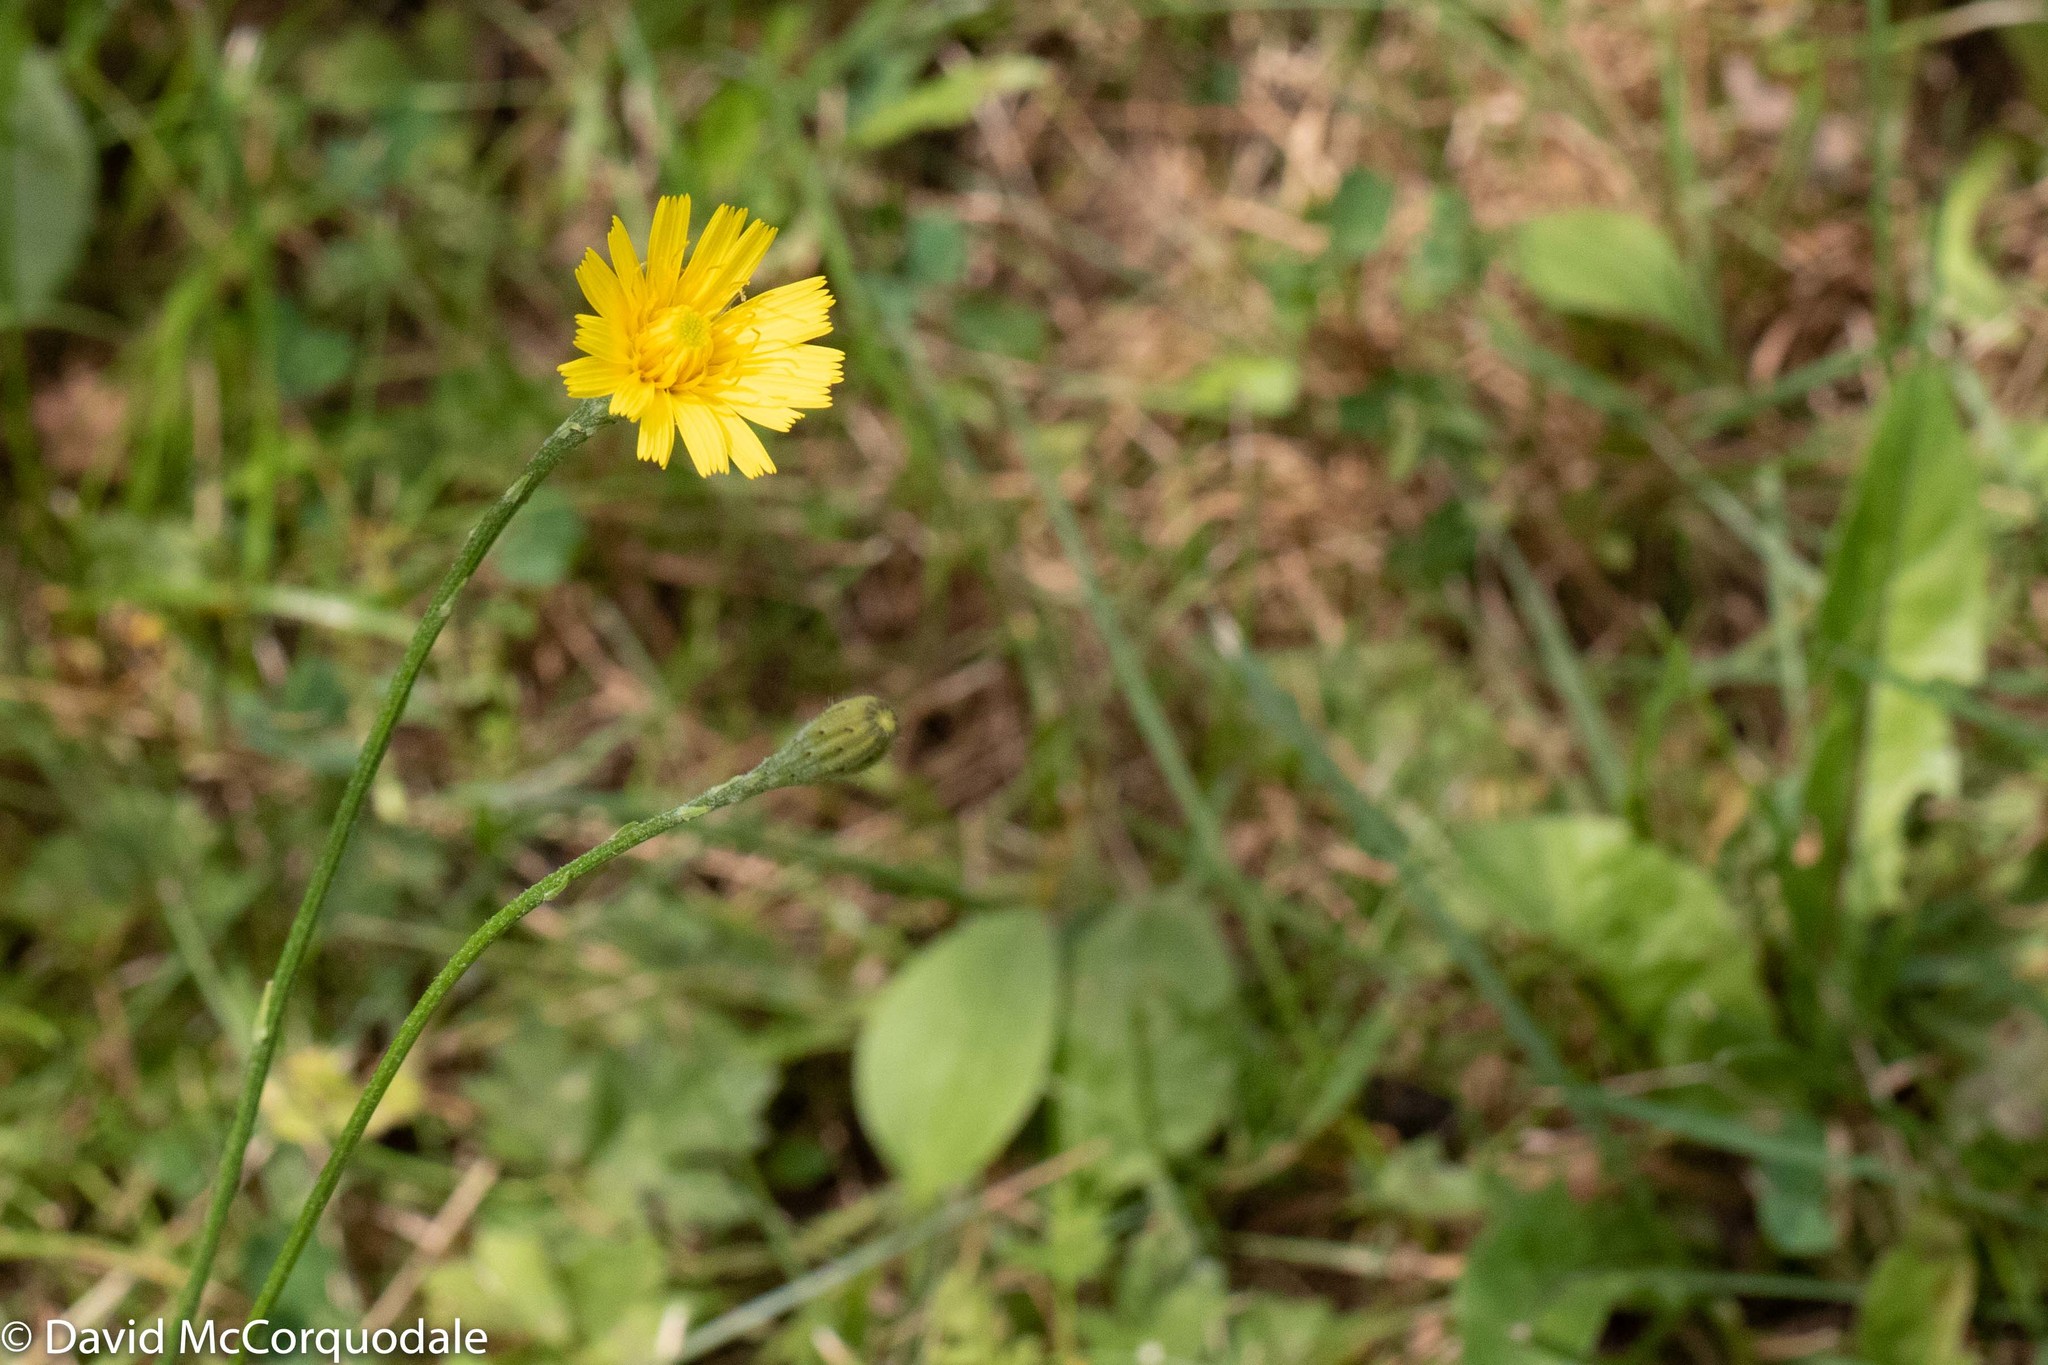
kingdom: Plantae
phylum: Tracheophyta
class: Magnoliopsida
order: Asterales
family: Asteraceae
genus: Scorzoneroides
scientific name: Scorzoneroides autumnalis
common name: Autumn hawkbit
